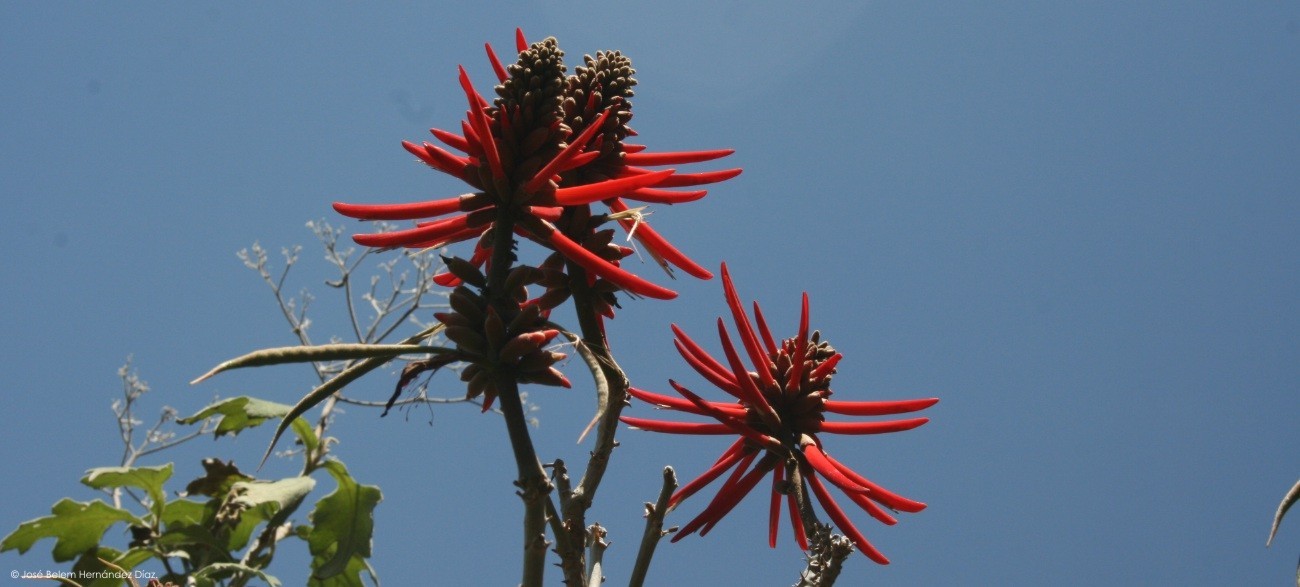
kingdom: Plantae
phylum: Tracheophyta
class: Magnoliopsida
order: Fabales
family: Fabaceae
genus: Erythrina
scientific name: Erythrina americana
